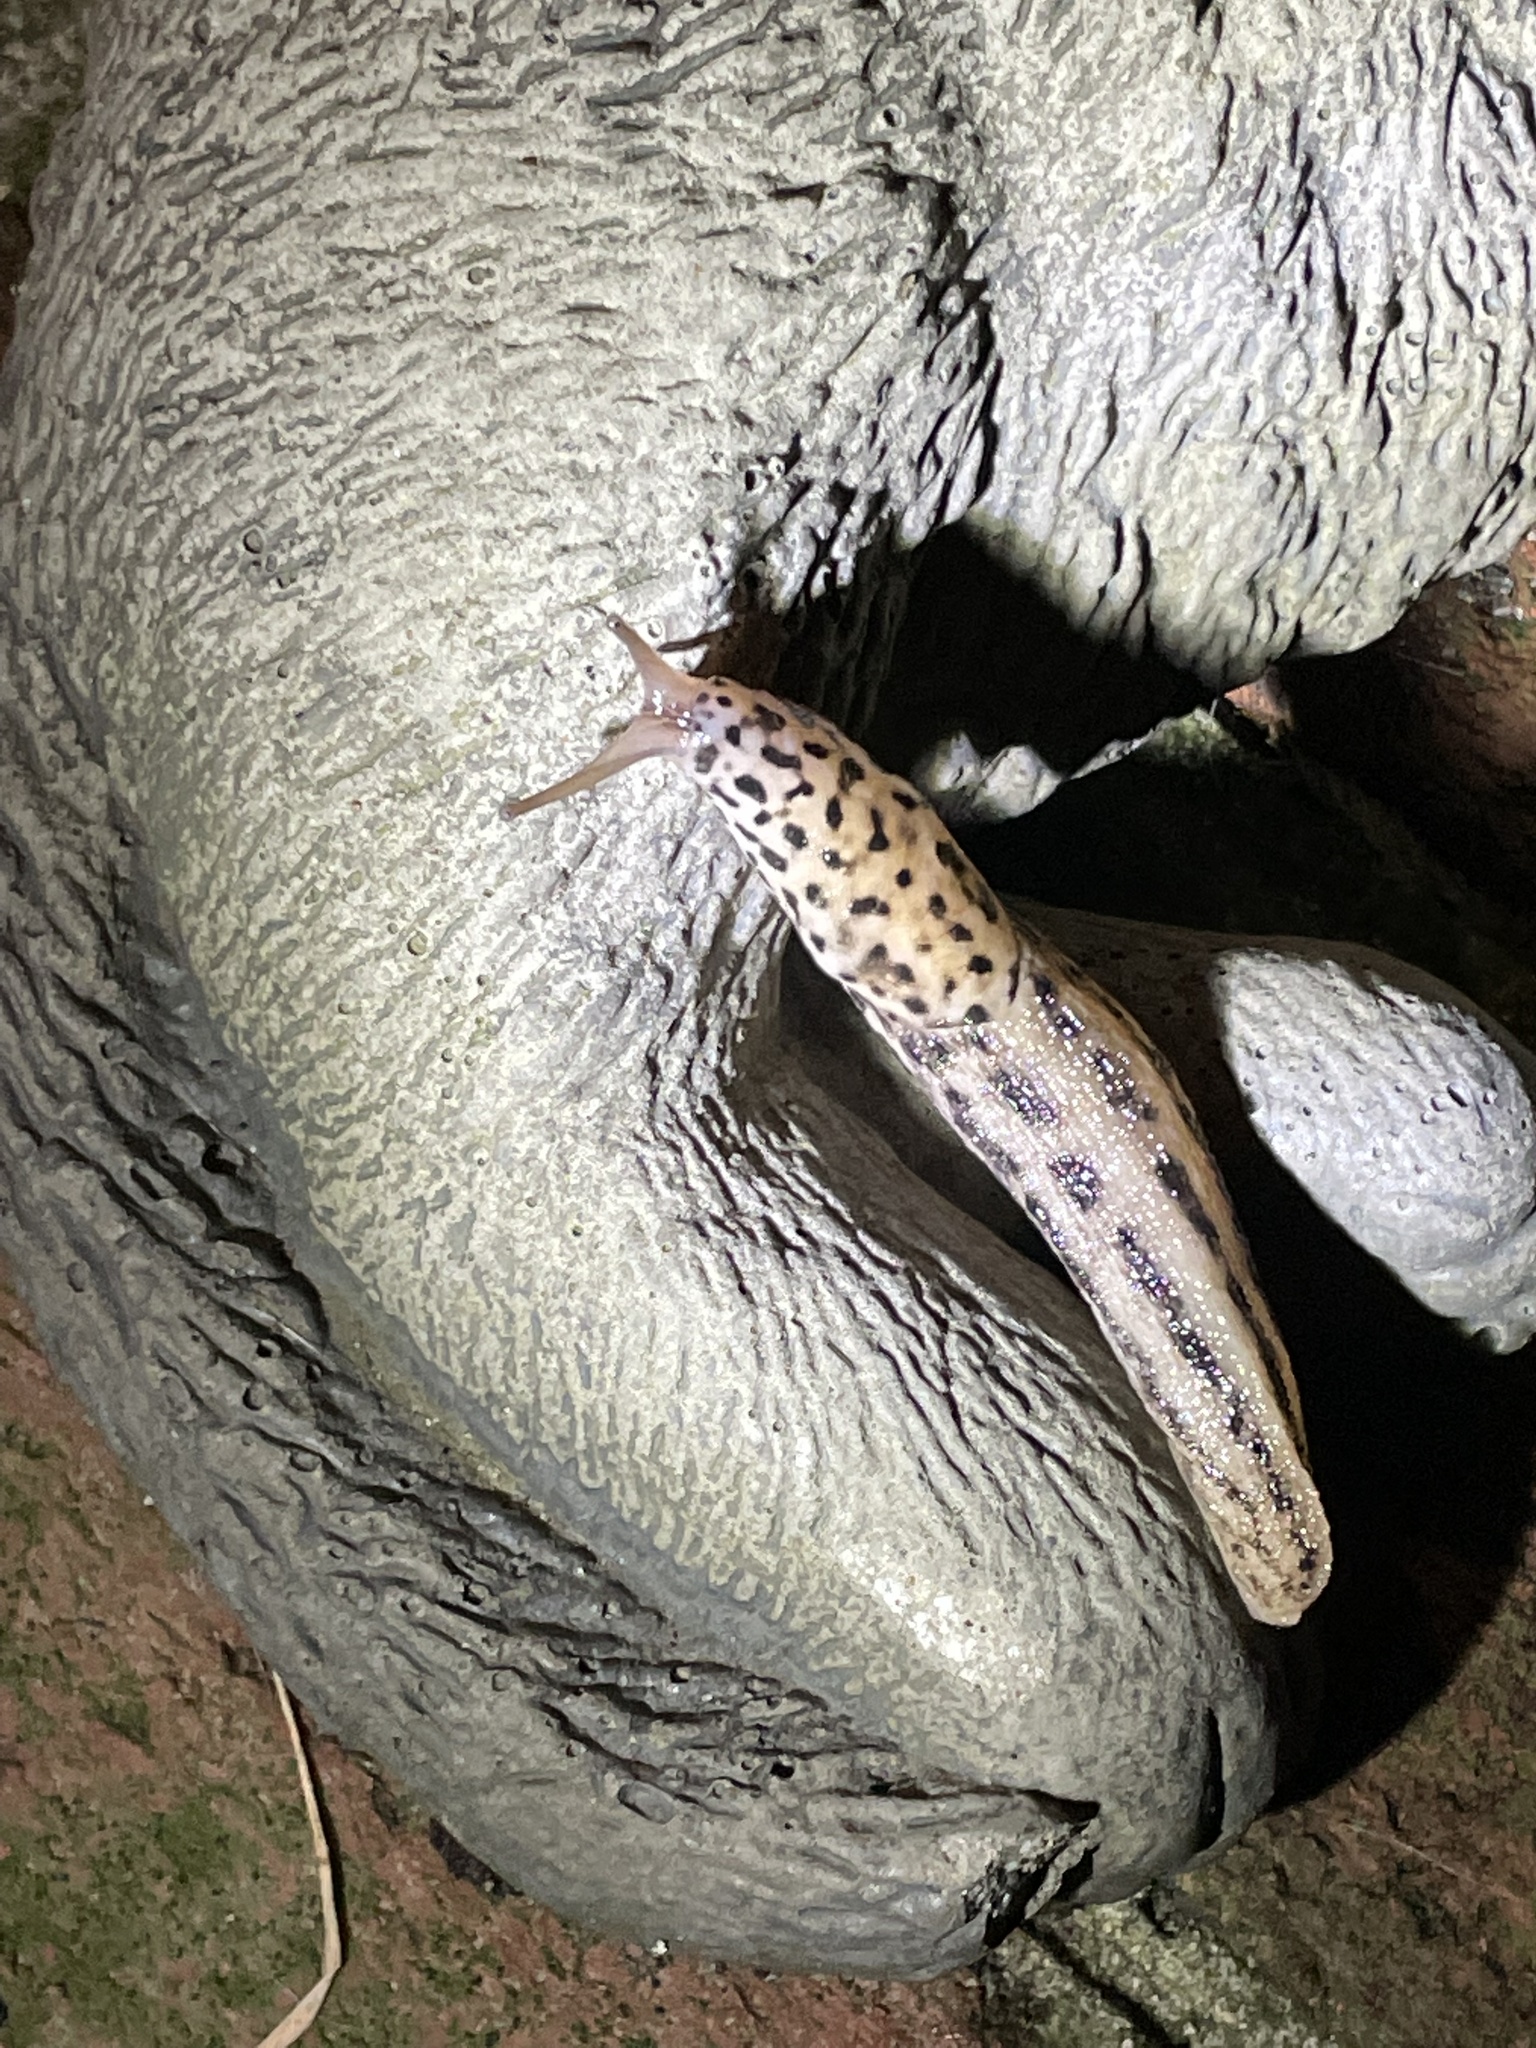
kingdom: Animalia
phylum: Mollusca
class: Gastropoda
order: Stylommatophora
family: Limacidae
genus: Limax
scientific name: Limax maximus
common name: Great grey slug
